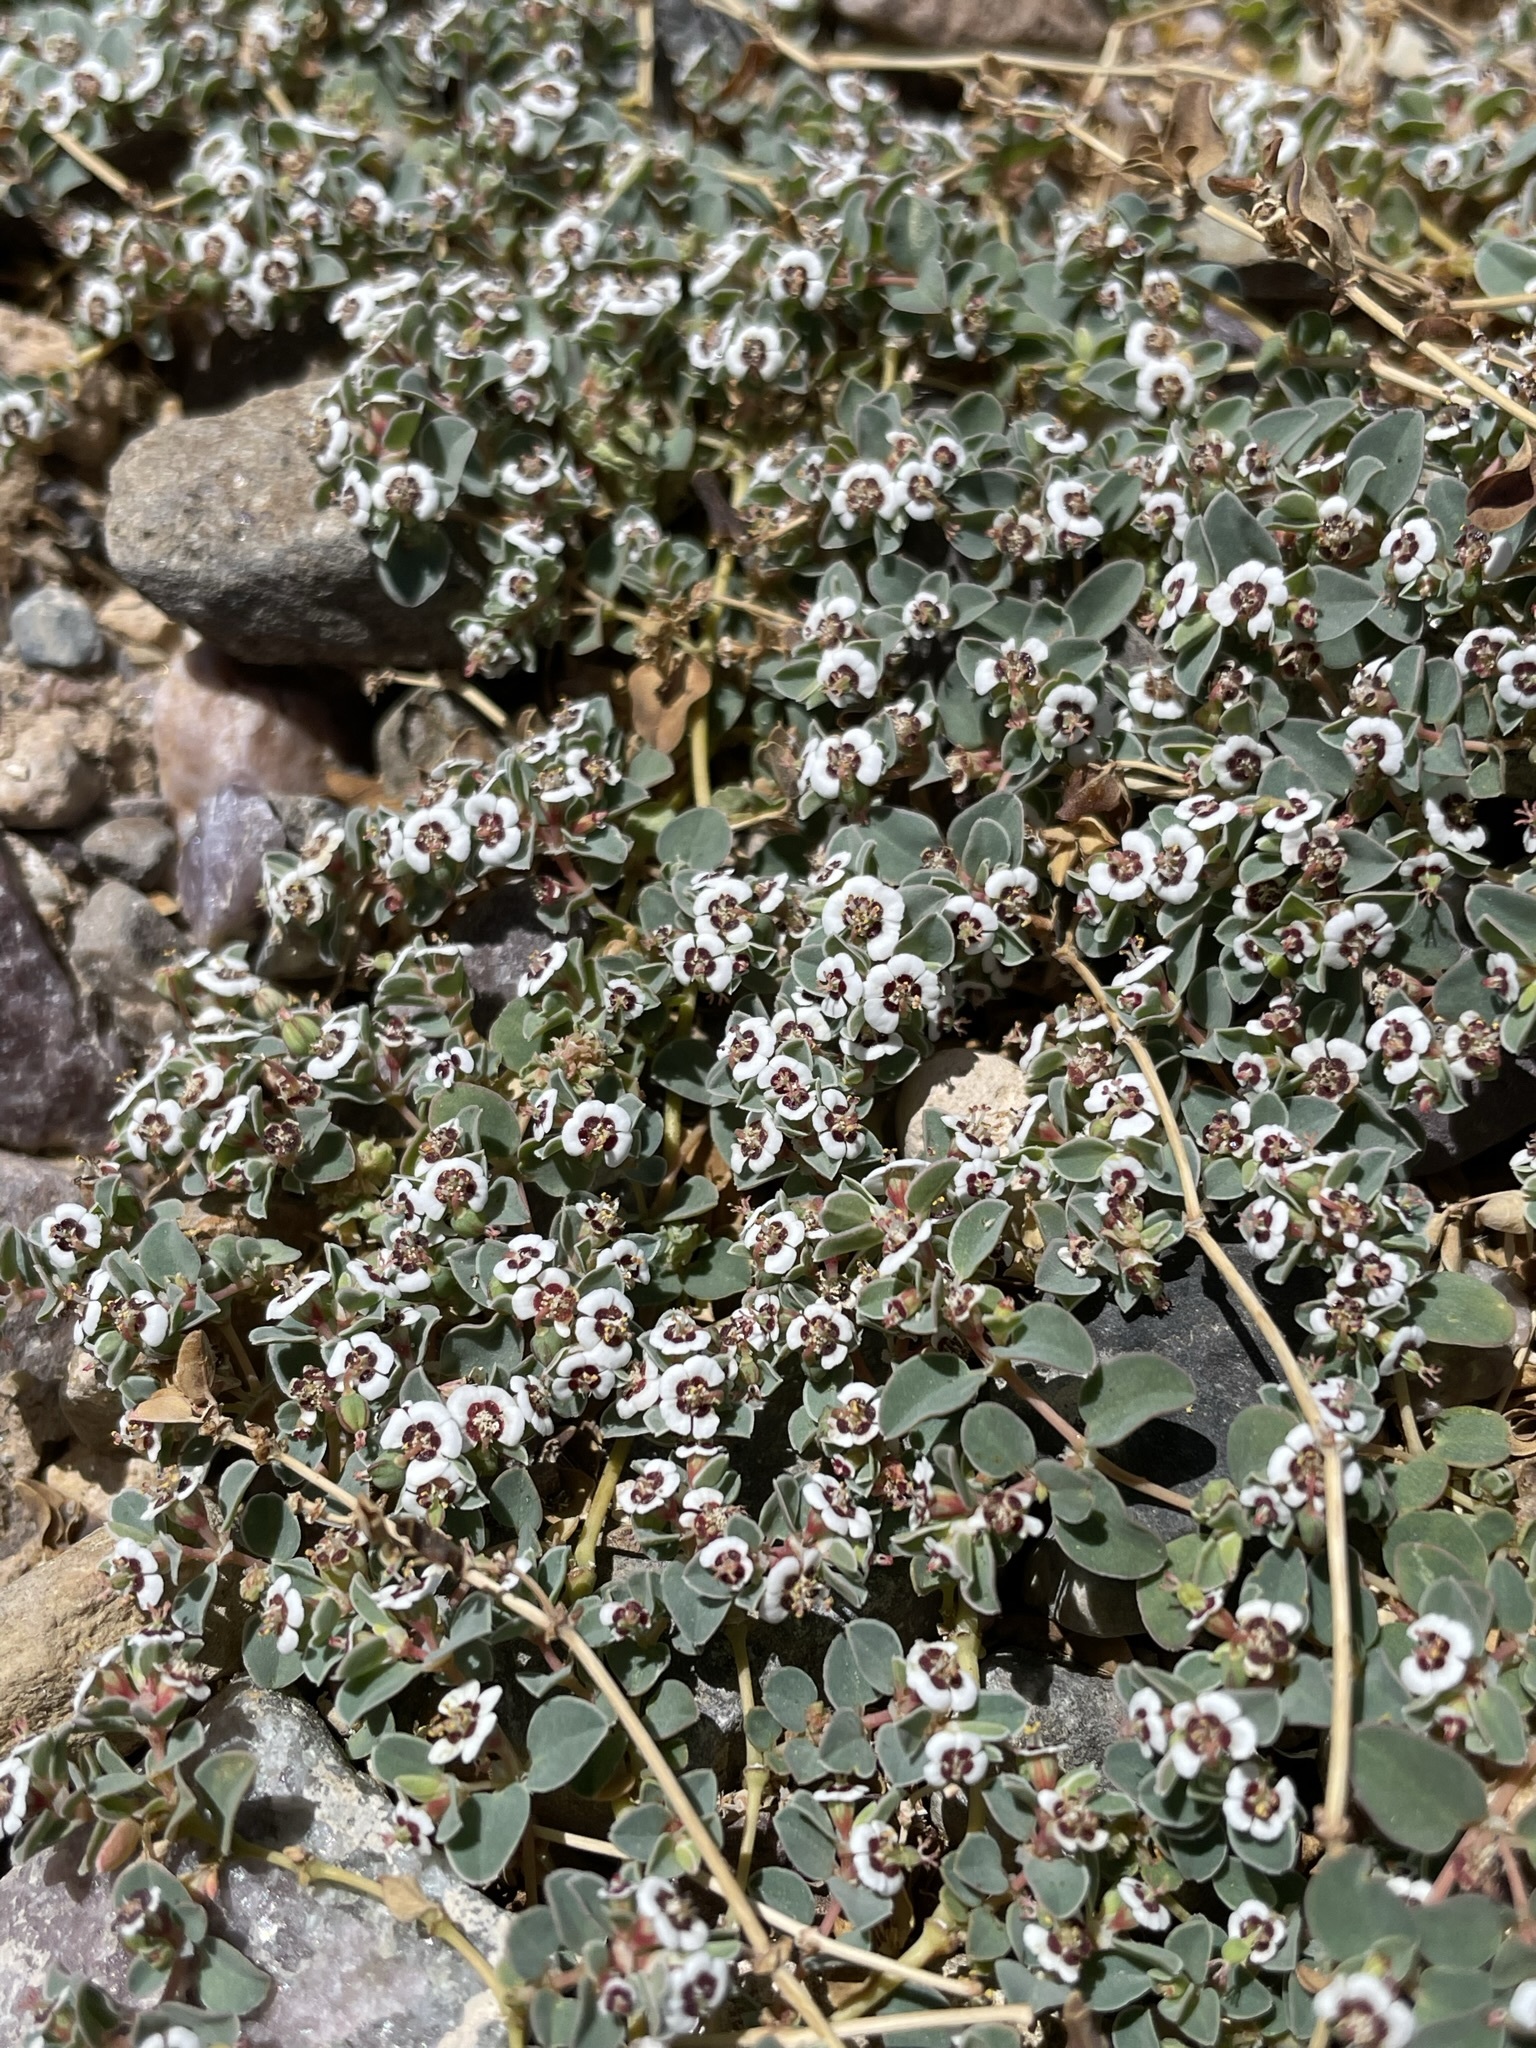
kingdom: Plantae
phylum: Tracheophyta
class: Magnoliopsida
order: Malpighiales
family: Euphorbiaceae
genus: Euphorbia
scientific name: Euphorbia albomarginata
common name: Whitemargin sandmat
